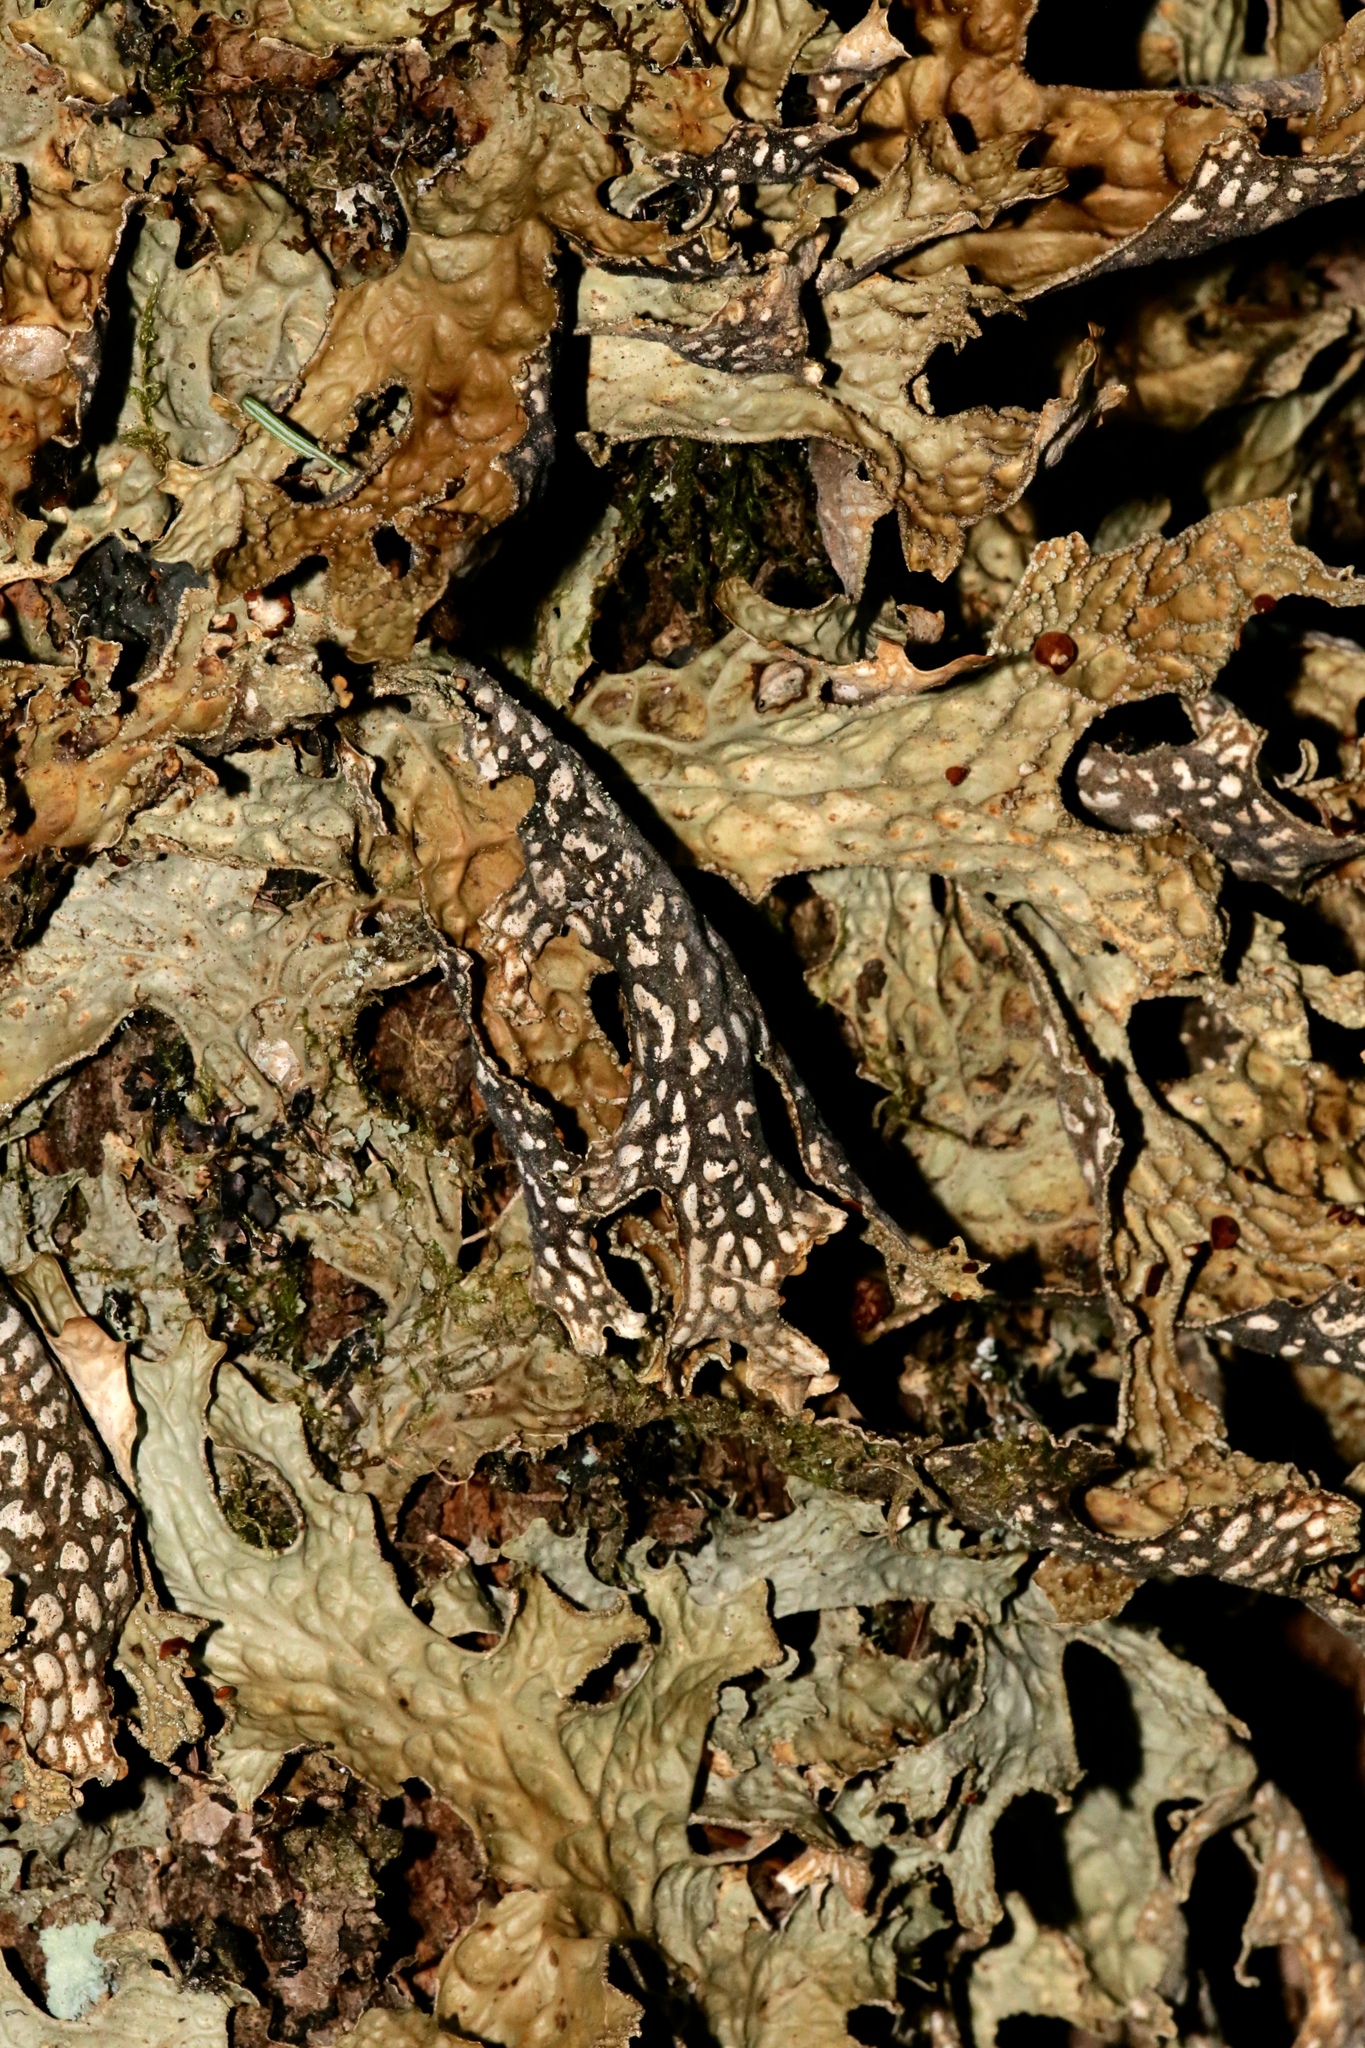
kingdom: Fungi
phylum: Ascomycota
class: Lecanoromycetes
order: Peltigerales
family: Lobariaceae
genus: Lobaria
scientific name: Lobaria pulmonaria
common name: Lungwort
